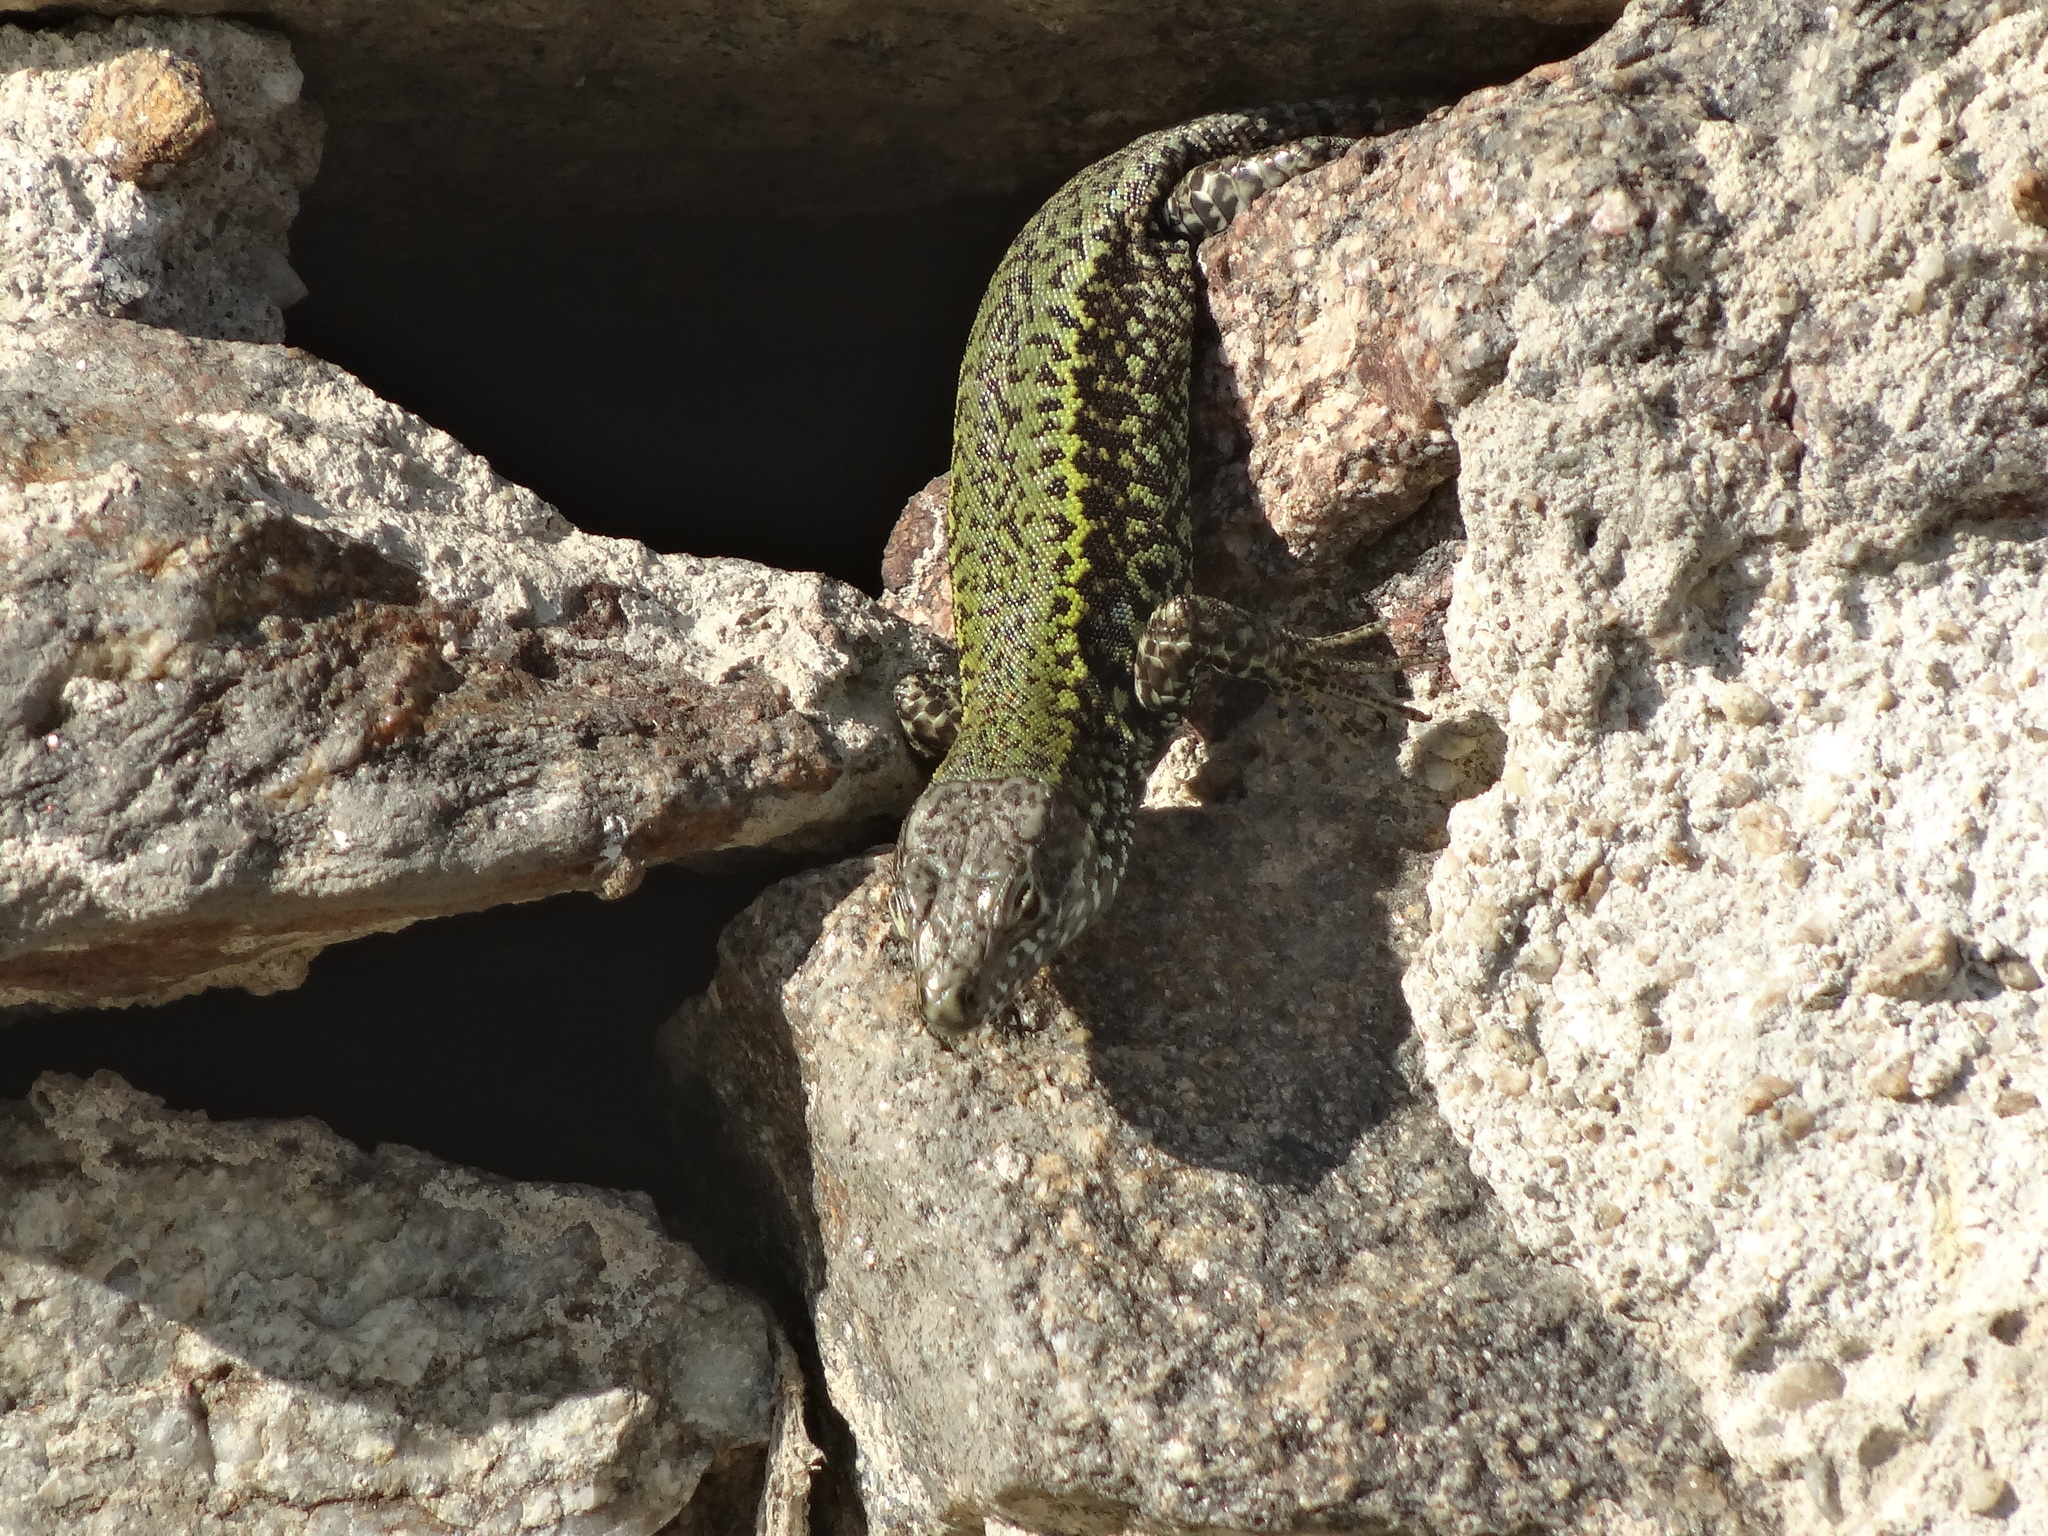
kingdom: Animalia
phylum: Chordata
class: Squamata
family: Lacertidae
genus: Podarcis
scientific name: Podarcis muralis
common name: Common wall lizard
